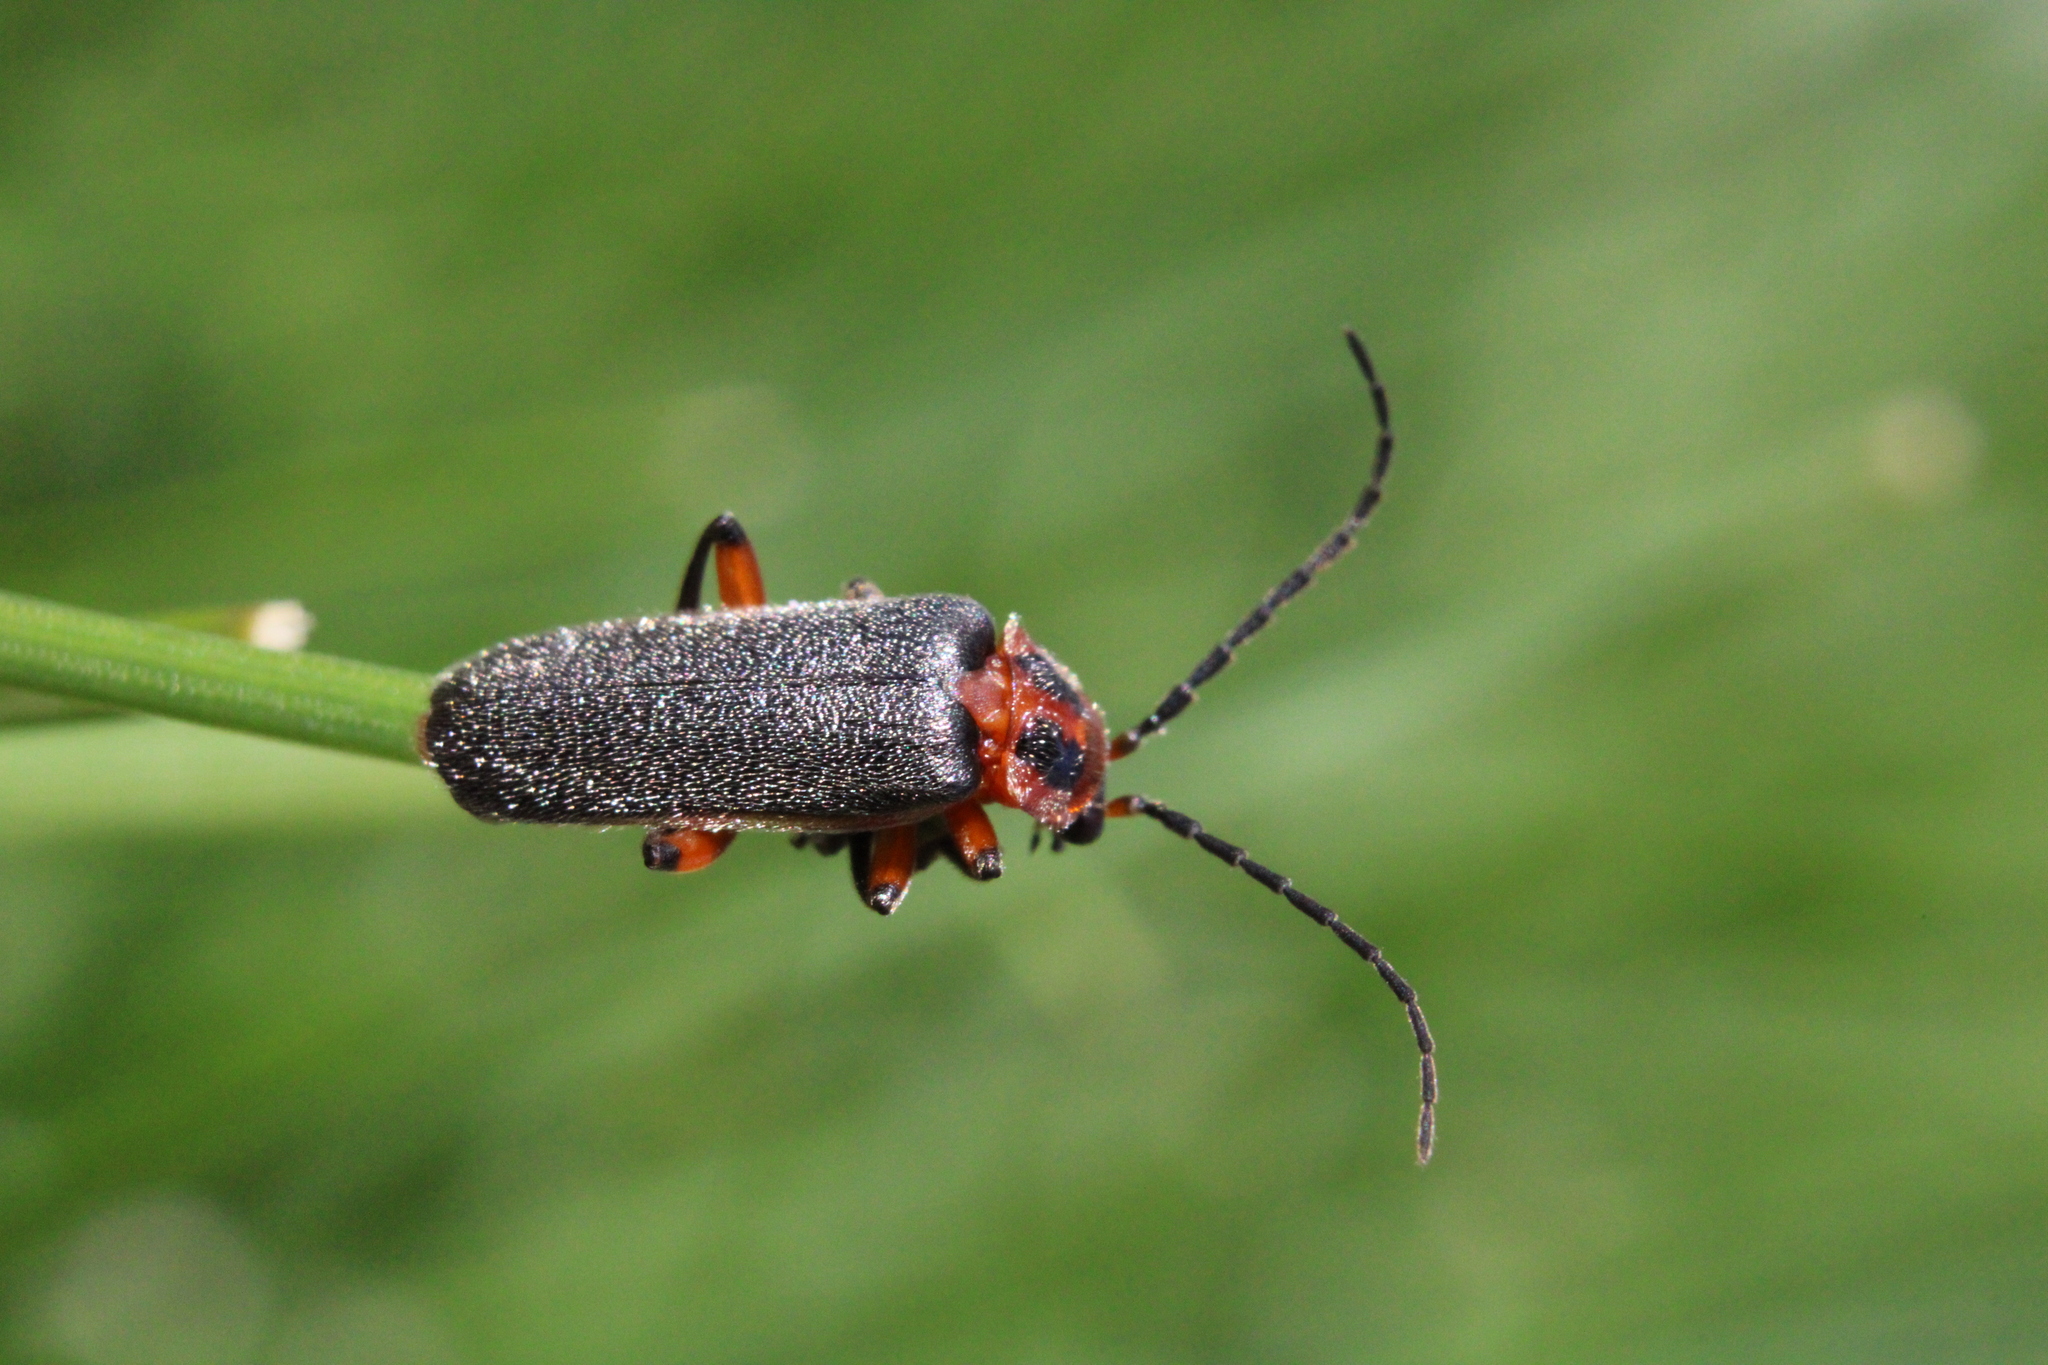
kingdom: Animalia
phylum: Arthropoda
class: Insecta
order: Coleoptera
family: Cantharidae
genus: Atalantycha
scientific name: Atalantycha bilineata
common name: Two-lined leatherwing
